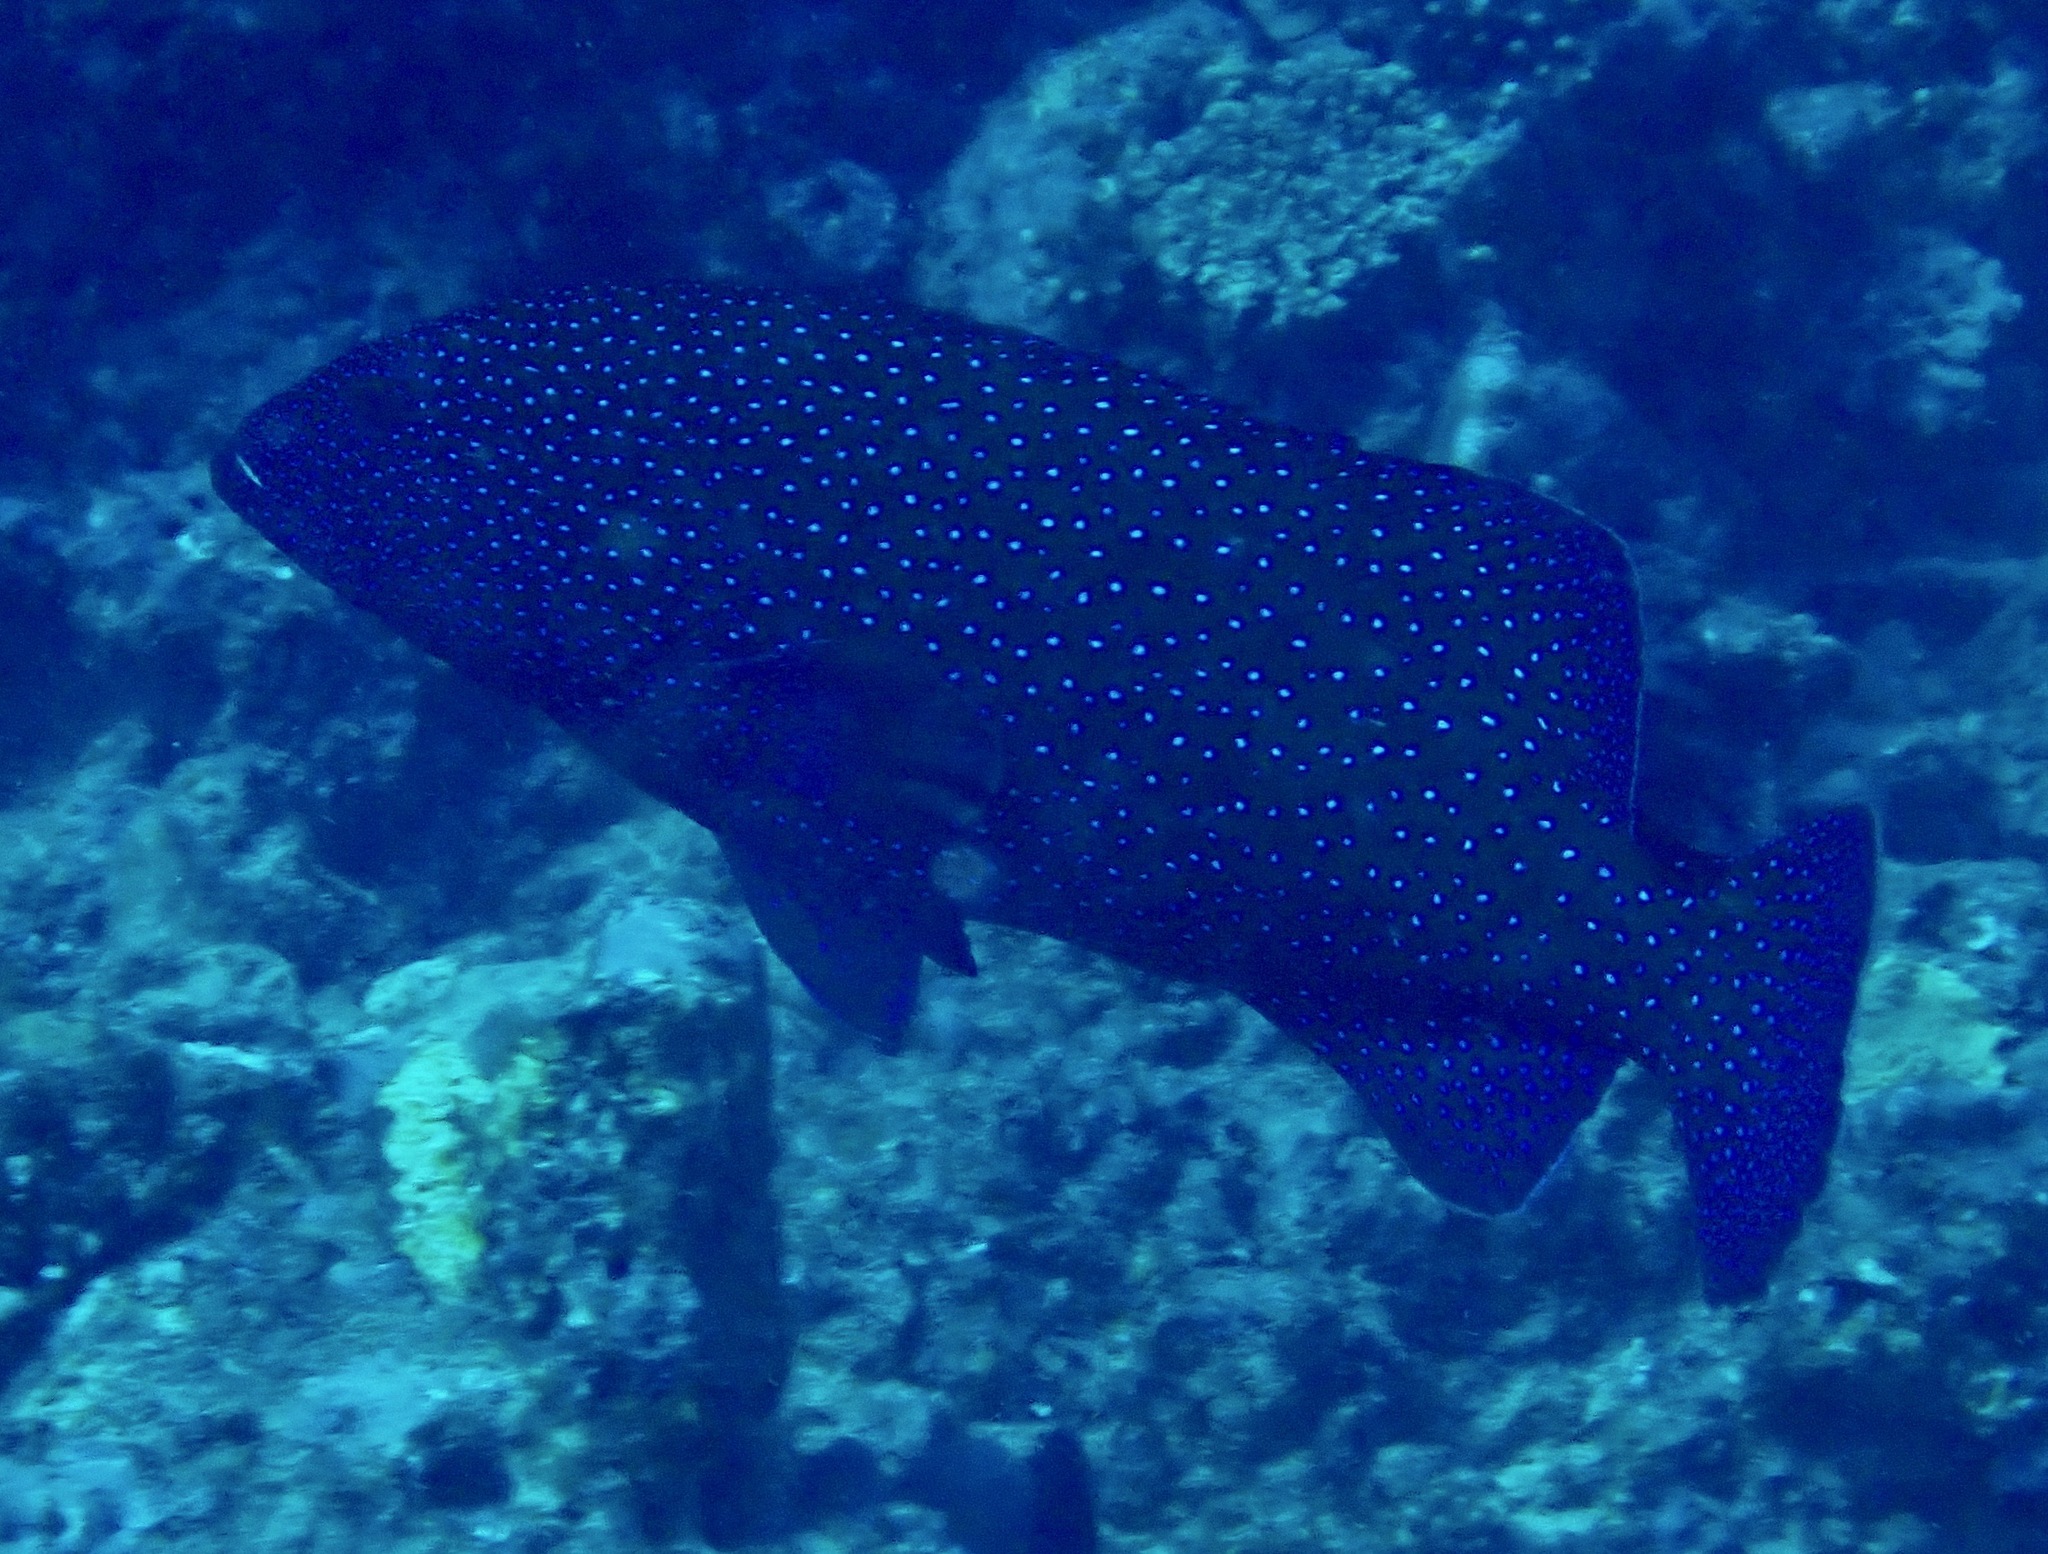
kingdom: Animalia
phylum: Chordata
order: Perciformes
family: Serranidae
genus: Cephalopholis
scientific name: Cephalopholis argus
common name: Peacock grouper
